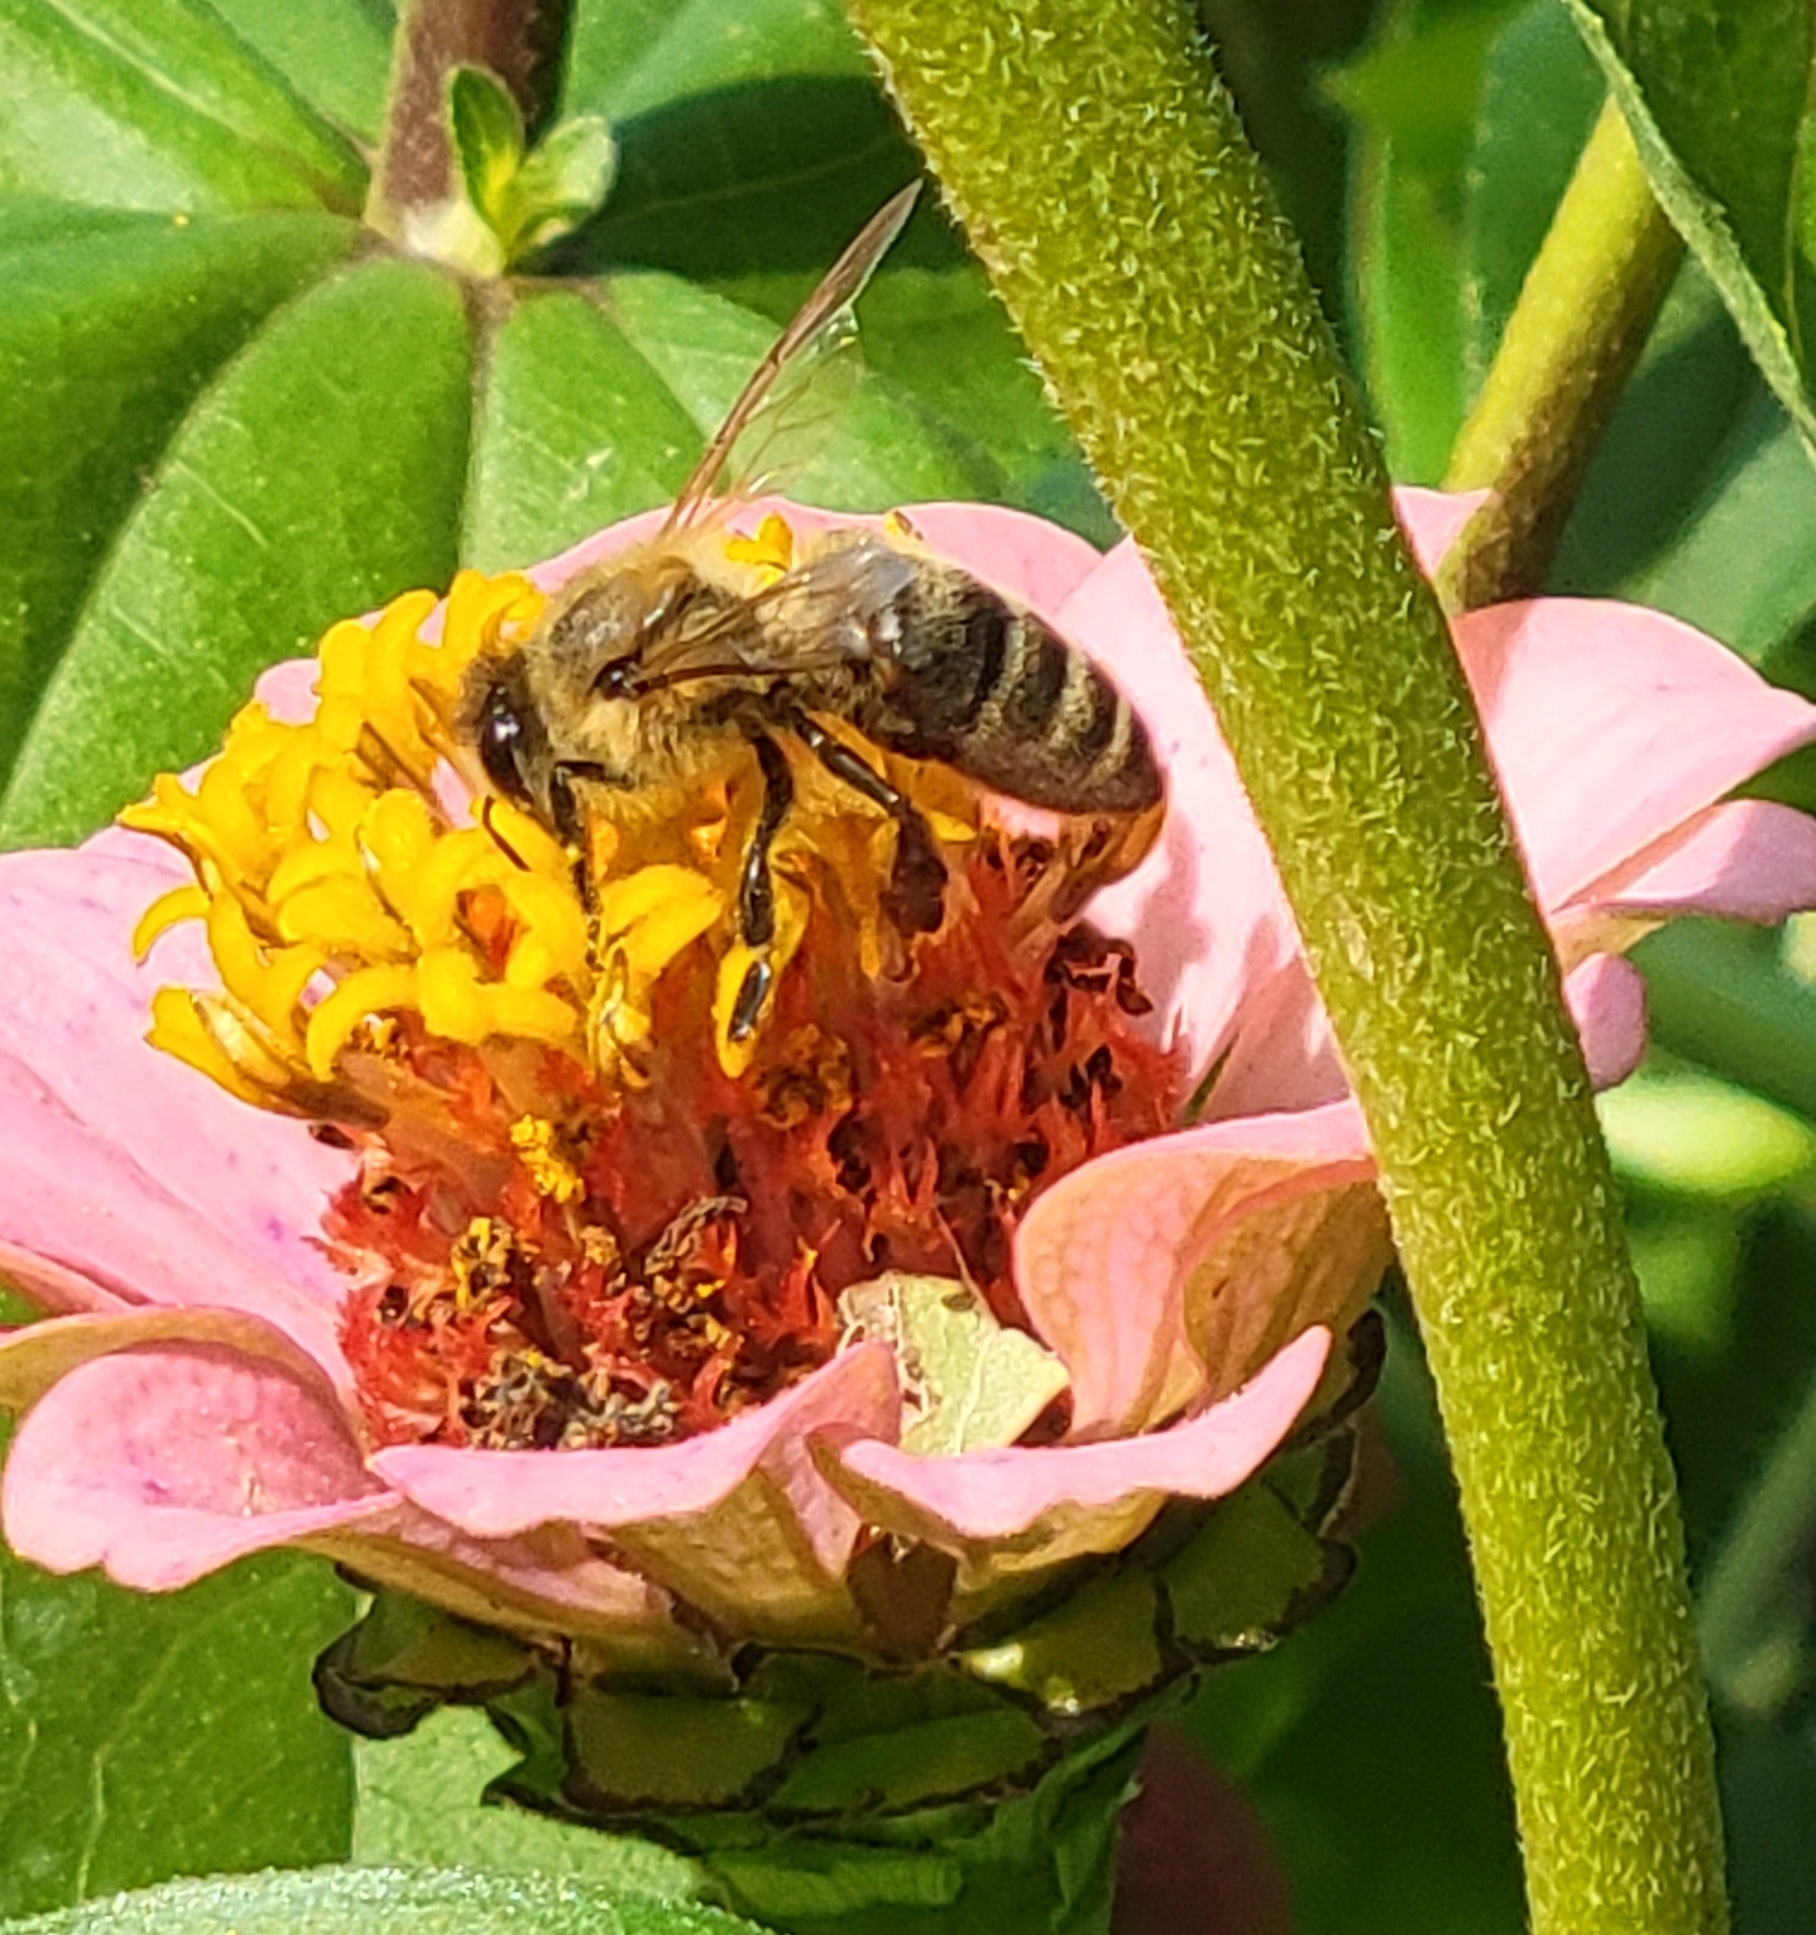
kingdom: Animalia
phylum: Arthropoda
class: Insecta
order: Hymenoptera
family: Apidae
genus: Apis
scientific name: Apis mellifera
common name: Honey bee
